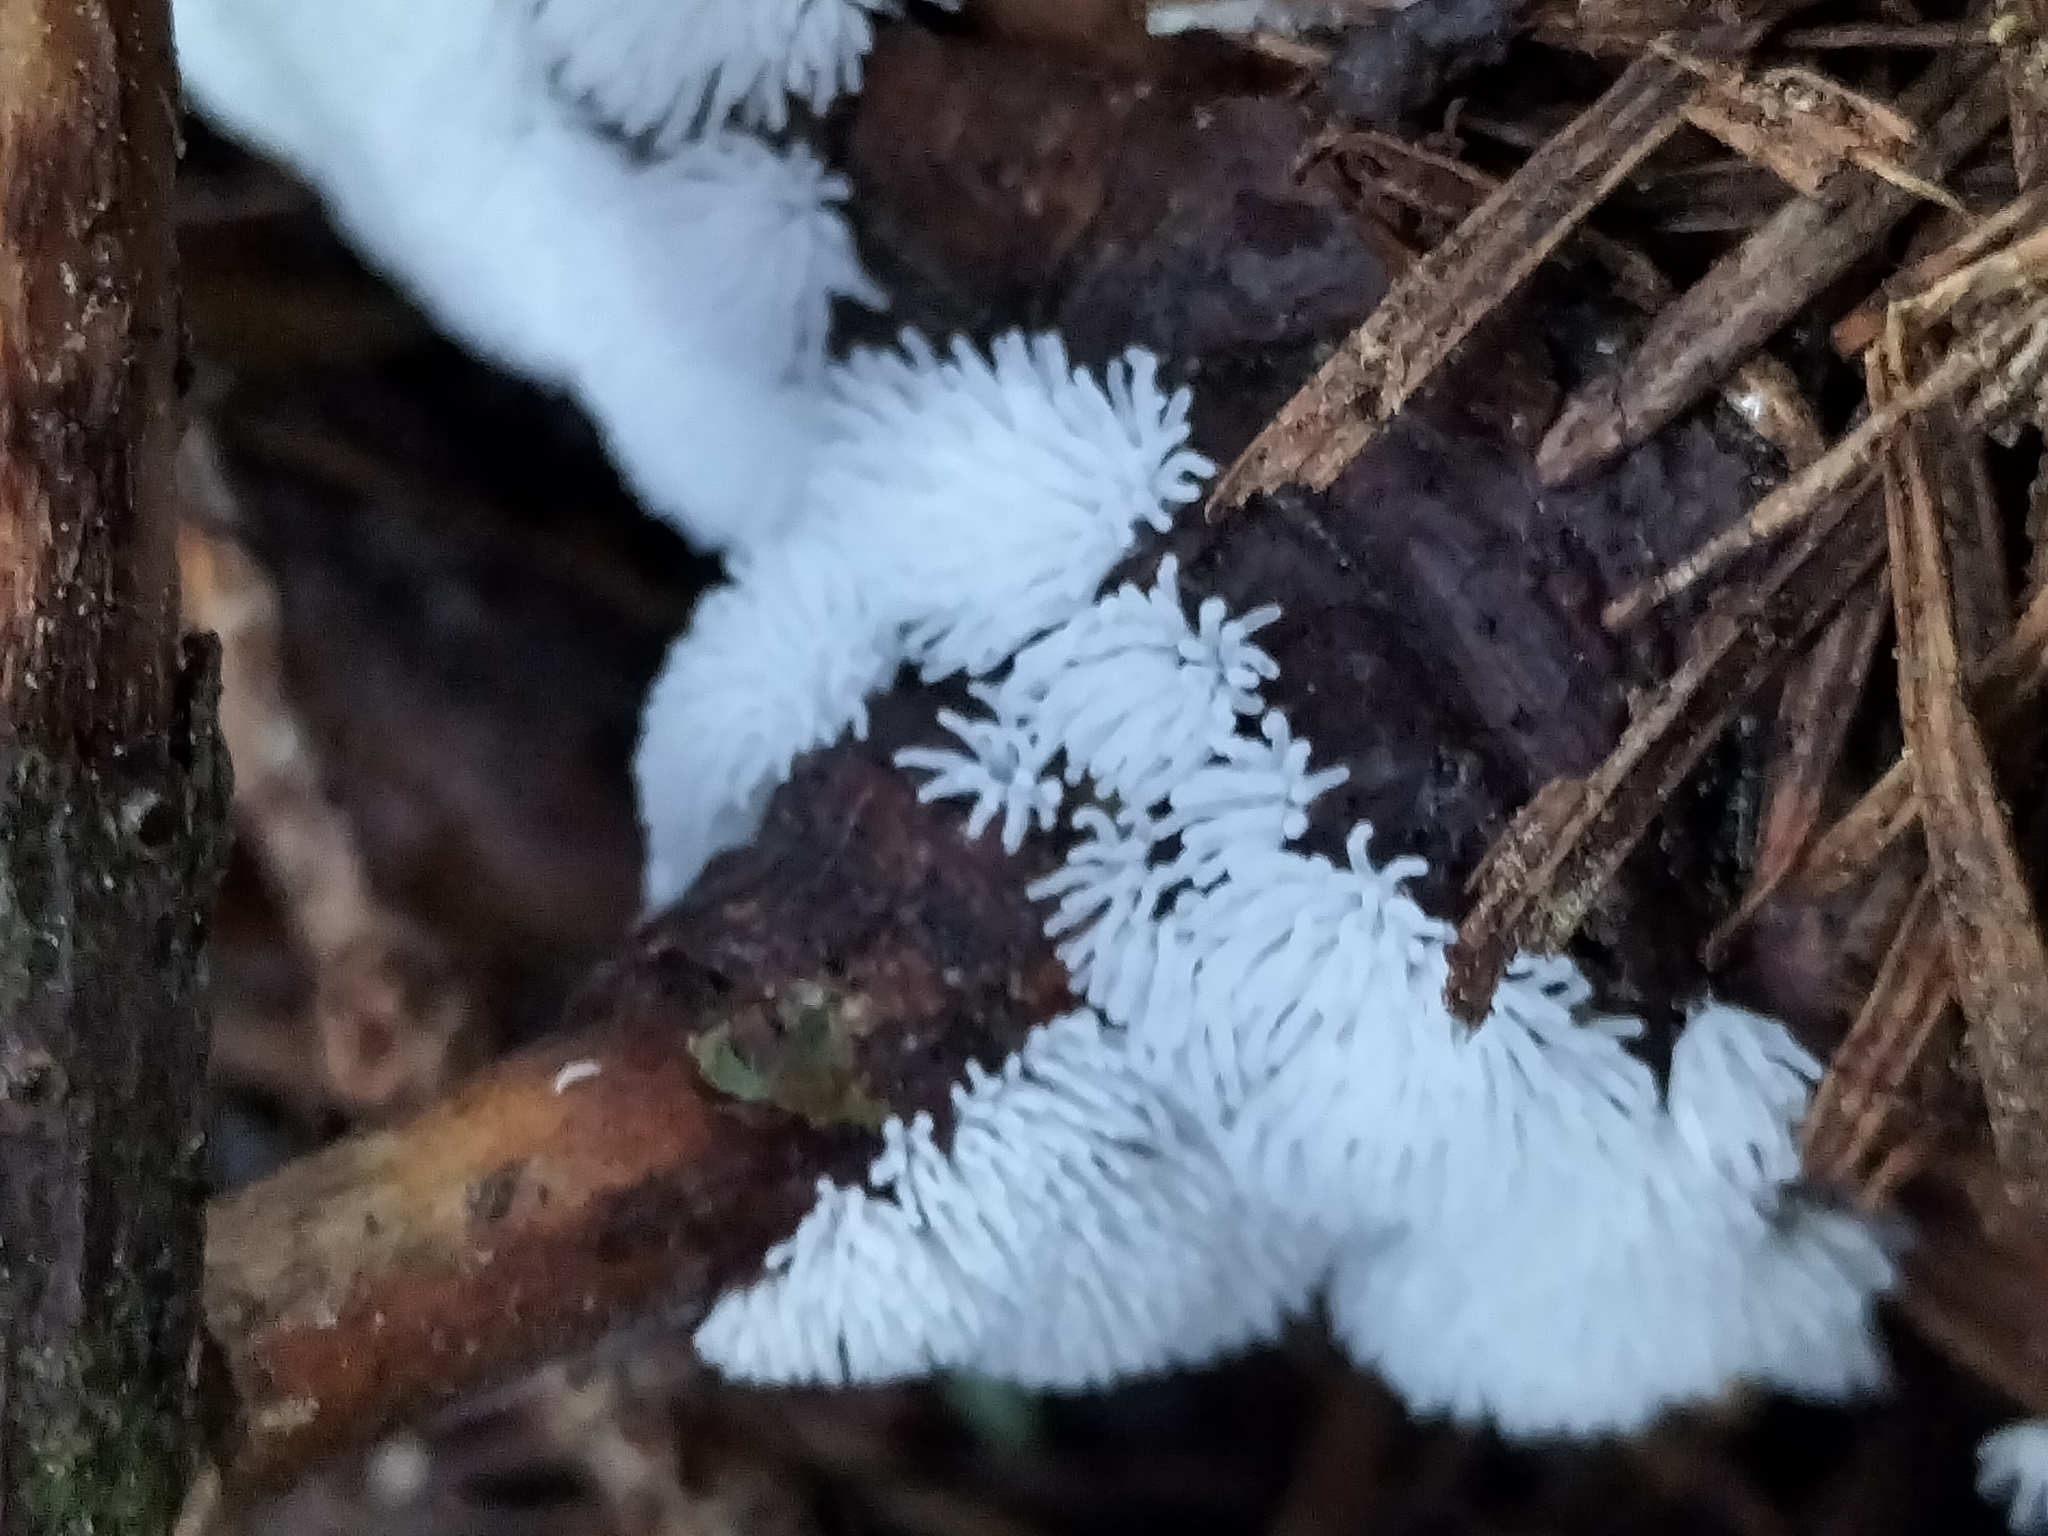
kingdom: Protozoa
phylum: Mycetozoa
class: Protosteliomycetes
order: Ceratiomyxales
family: Ceratiomyxaceae
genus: Ceratiomyxa
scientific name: Ceratiomyxa fruticulosa
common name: Honeycomb coral slime mold
